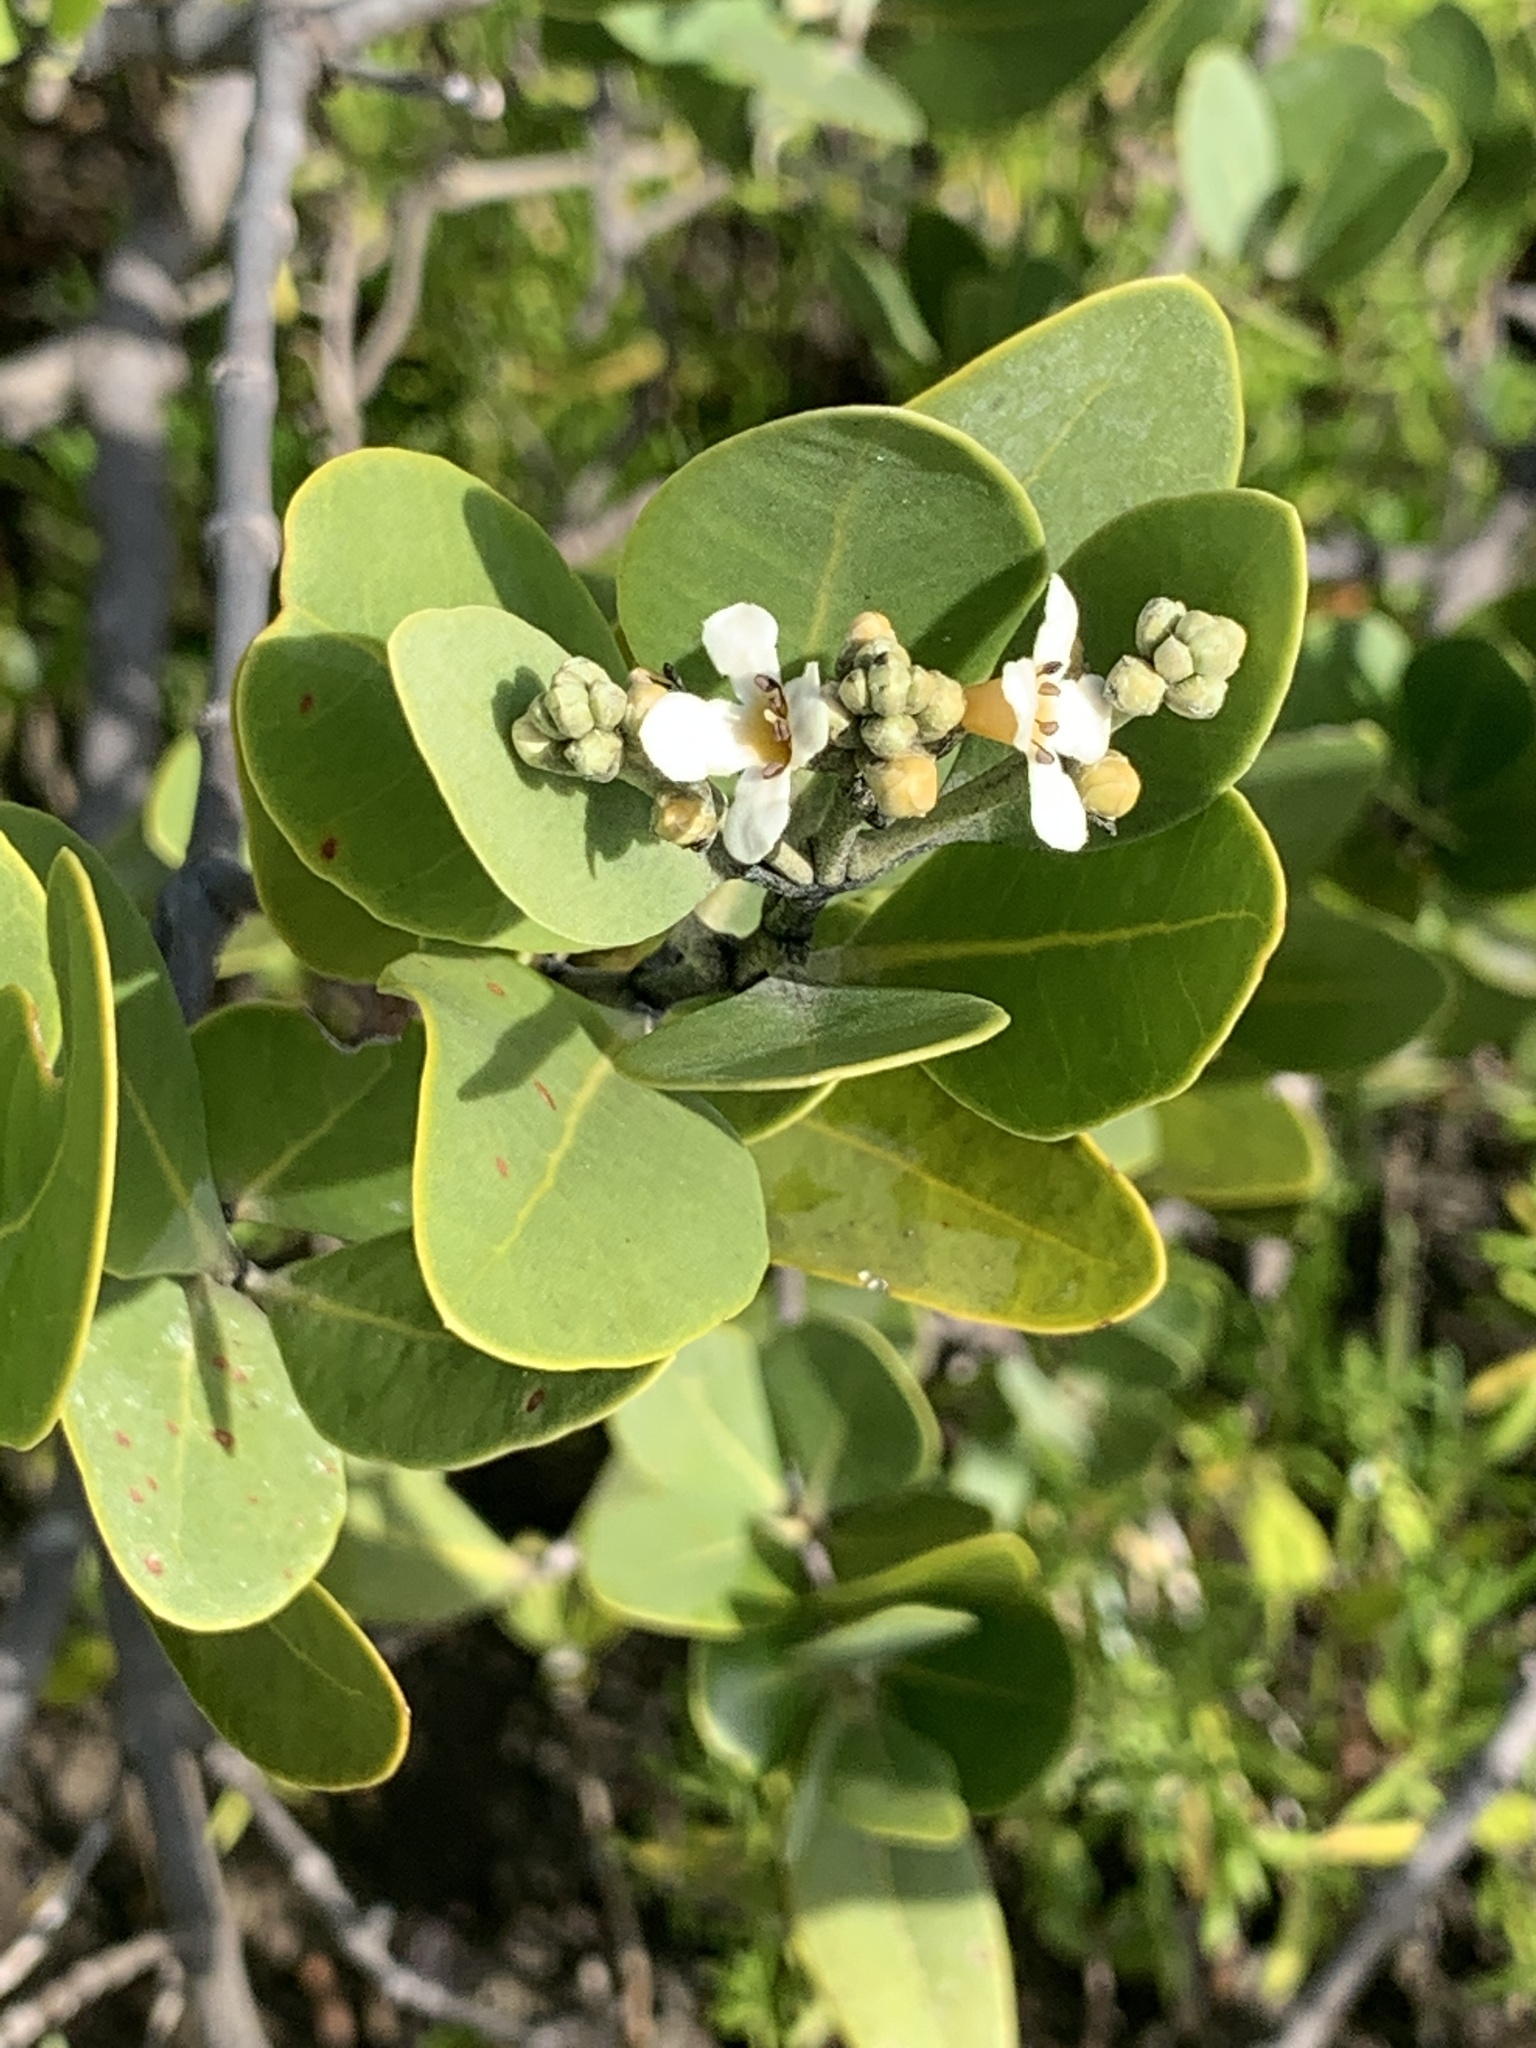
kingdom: Plantae
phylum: Tracheophyta
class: Magnoliopsida
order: Lamiales
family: Acanthaceae
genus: Avicennia
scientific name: Avicennia germinans
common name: Black mangrove
